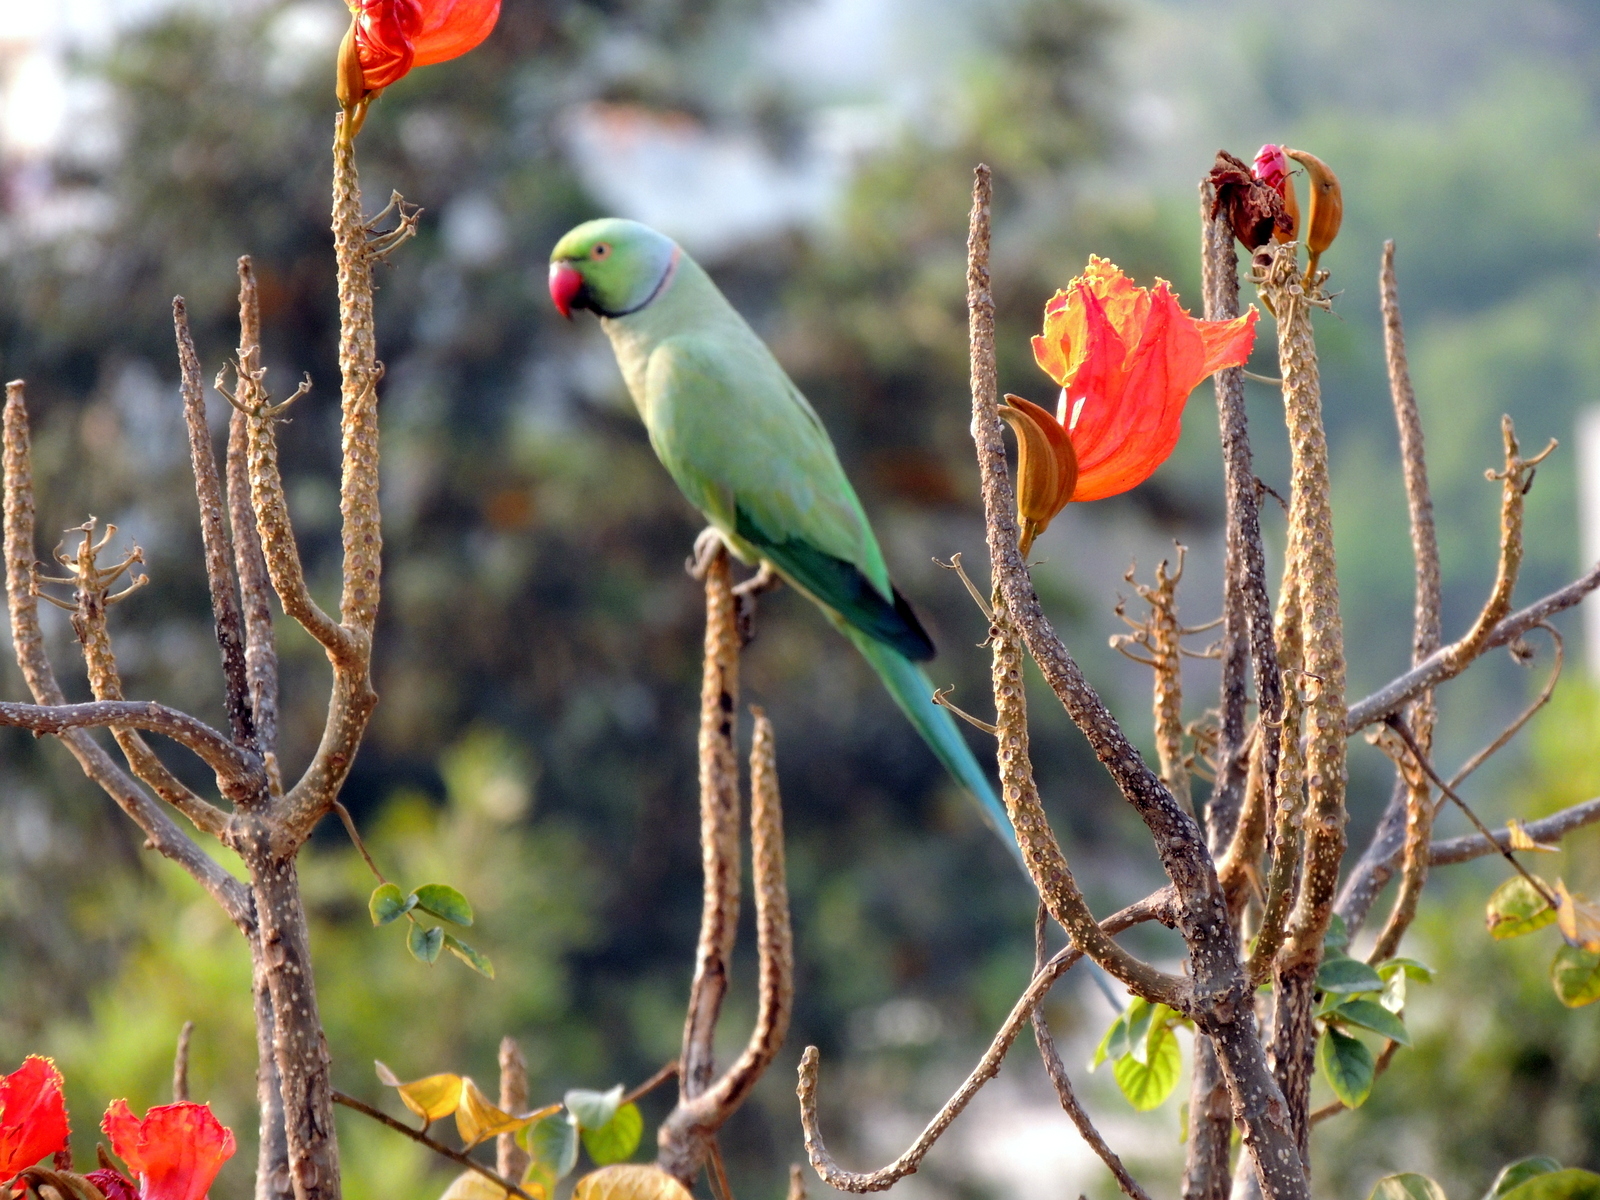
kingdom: Animalia
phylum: Chordata
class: Aves
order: Psittaciformes
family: Psittacidae
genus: Psittacula
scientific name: Psittacula krameri
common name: Rose-ringed parakeet
